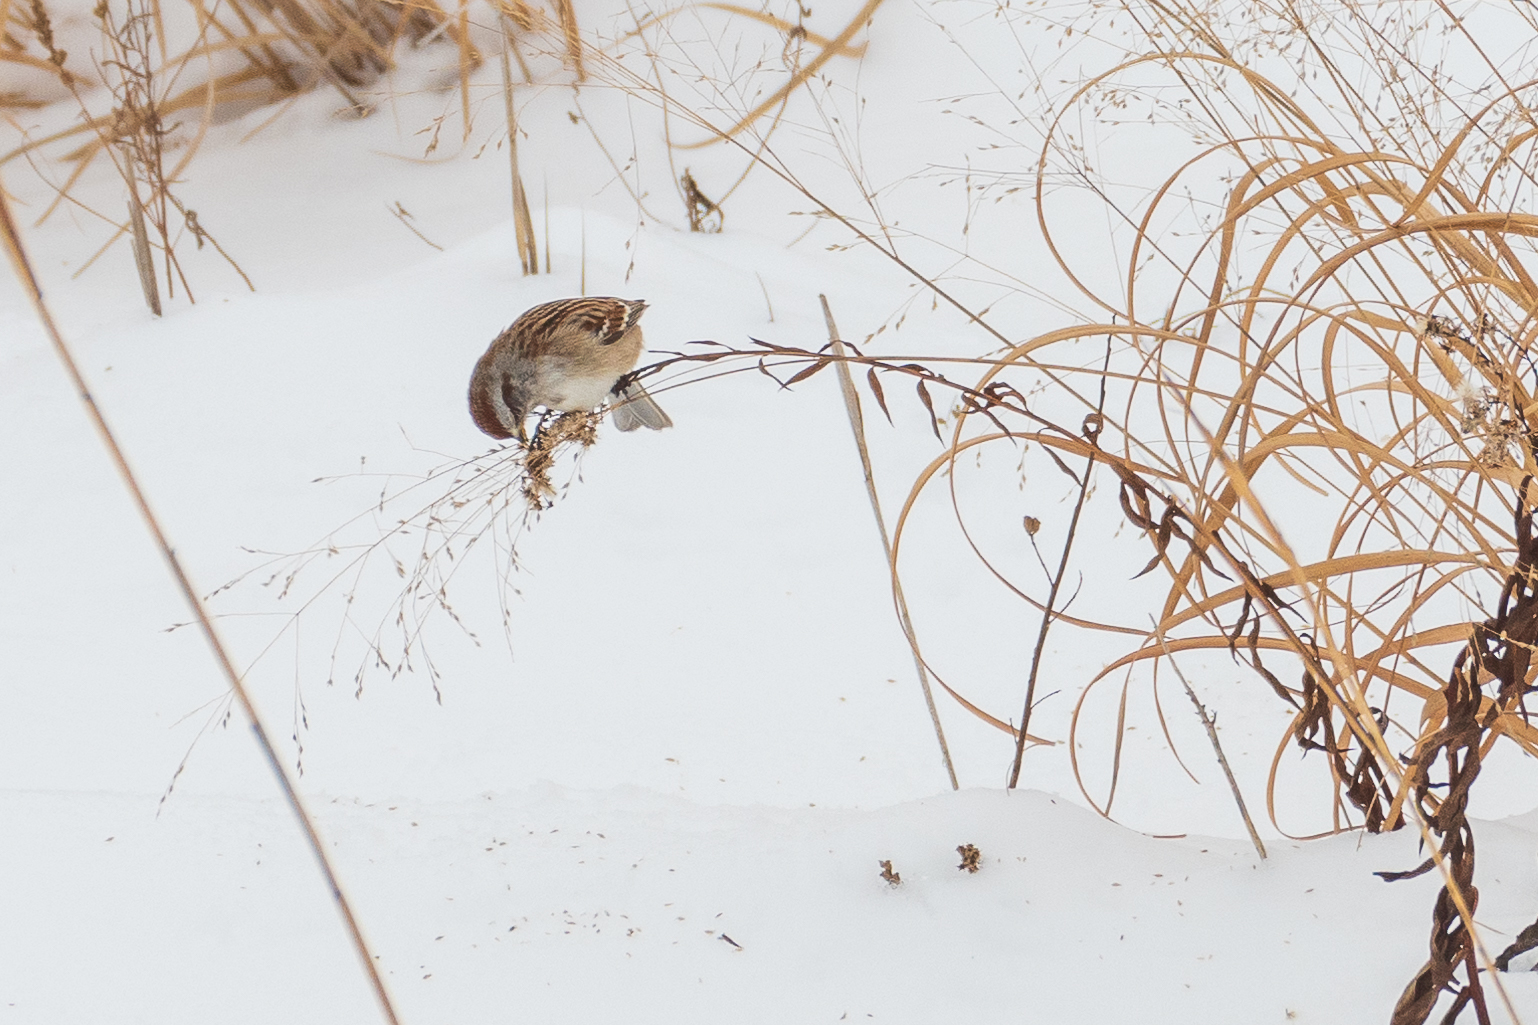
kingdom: Animalia
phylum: Chordata
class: Aves
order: Passeriformes
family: Passerellidae
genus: Spizelloides
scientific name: Spizelloides arborea
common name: American tree sparrow
